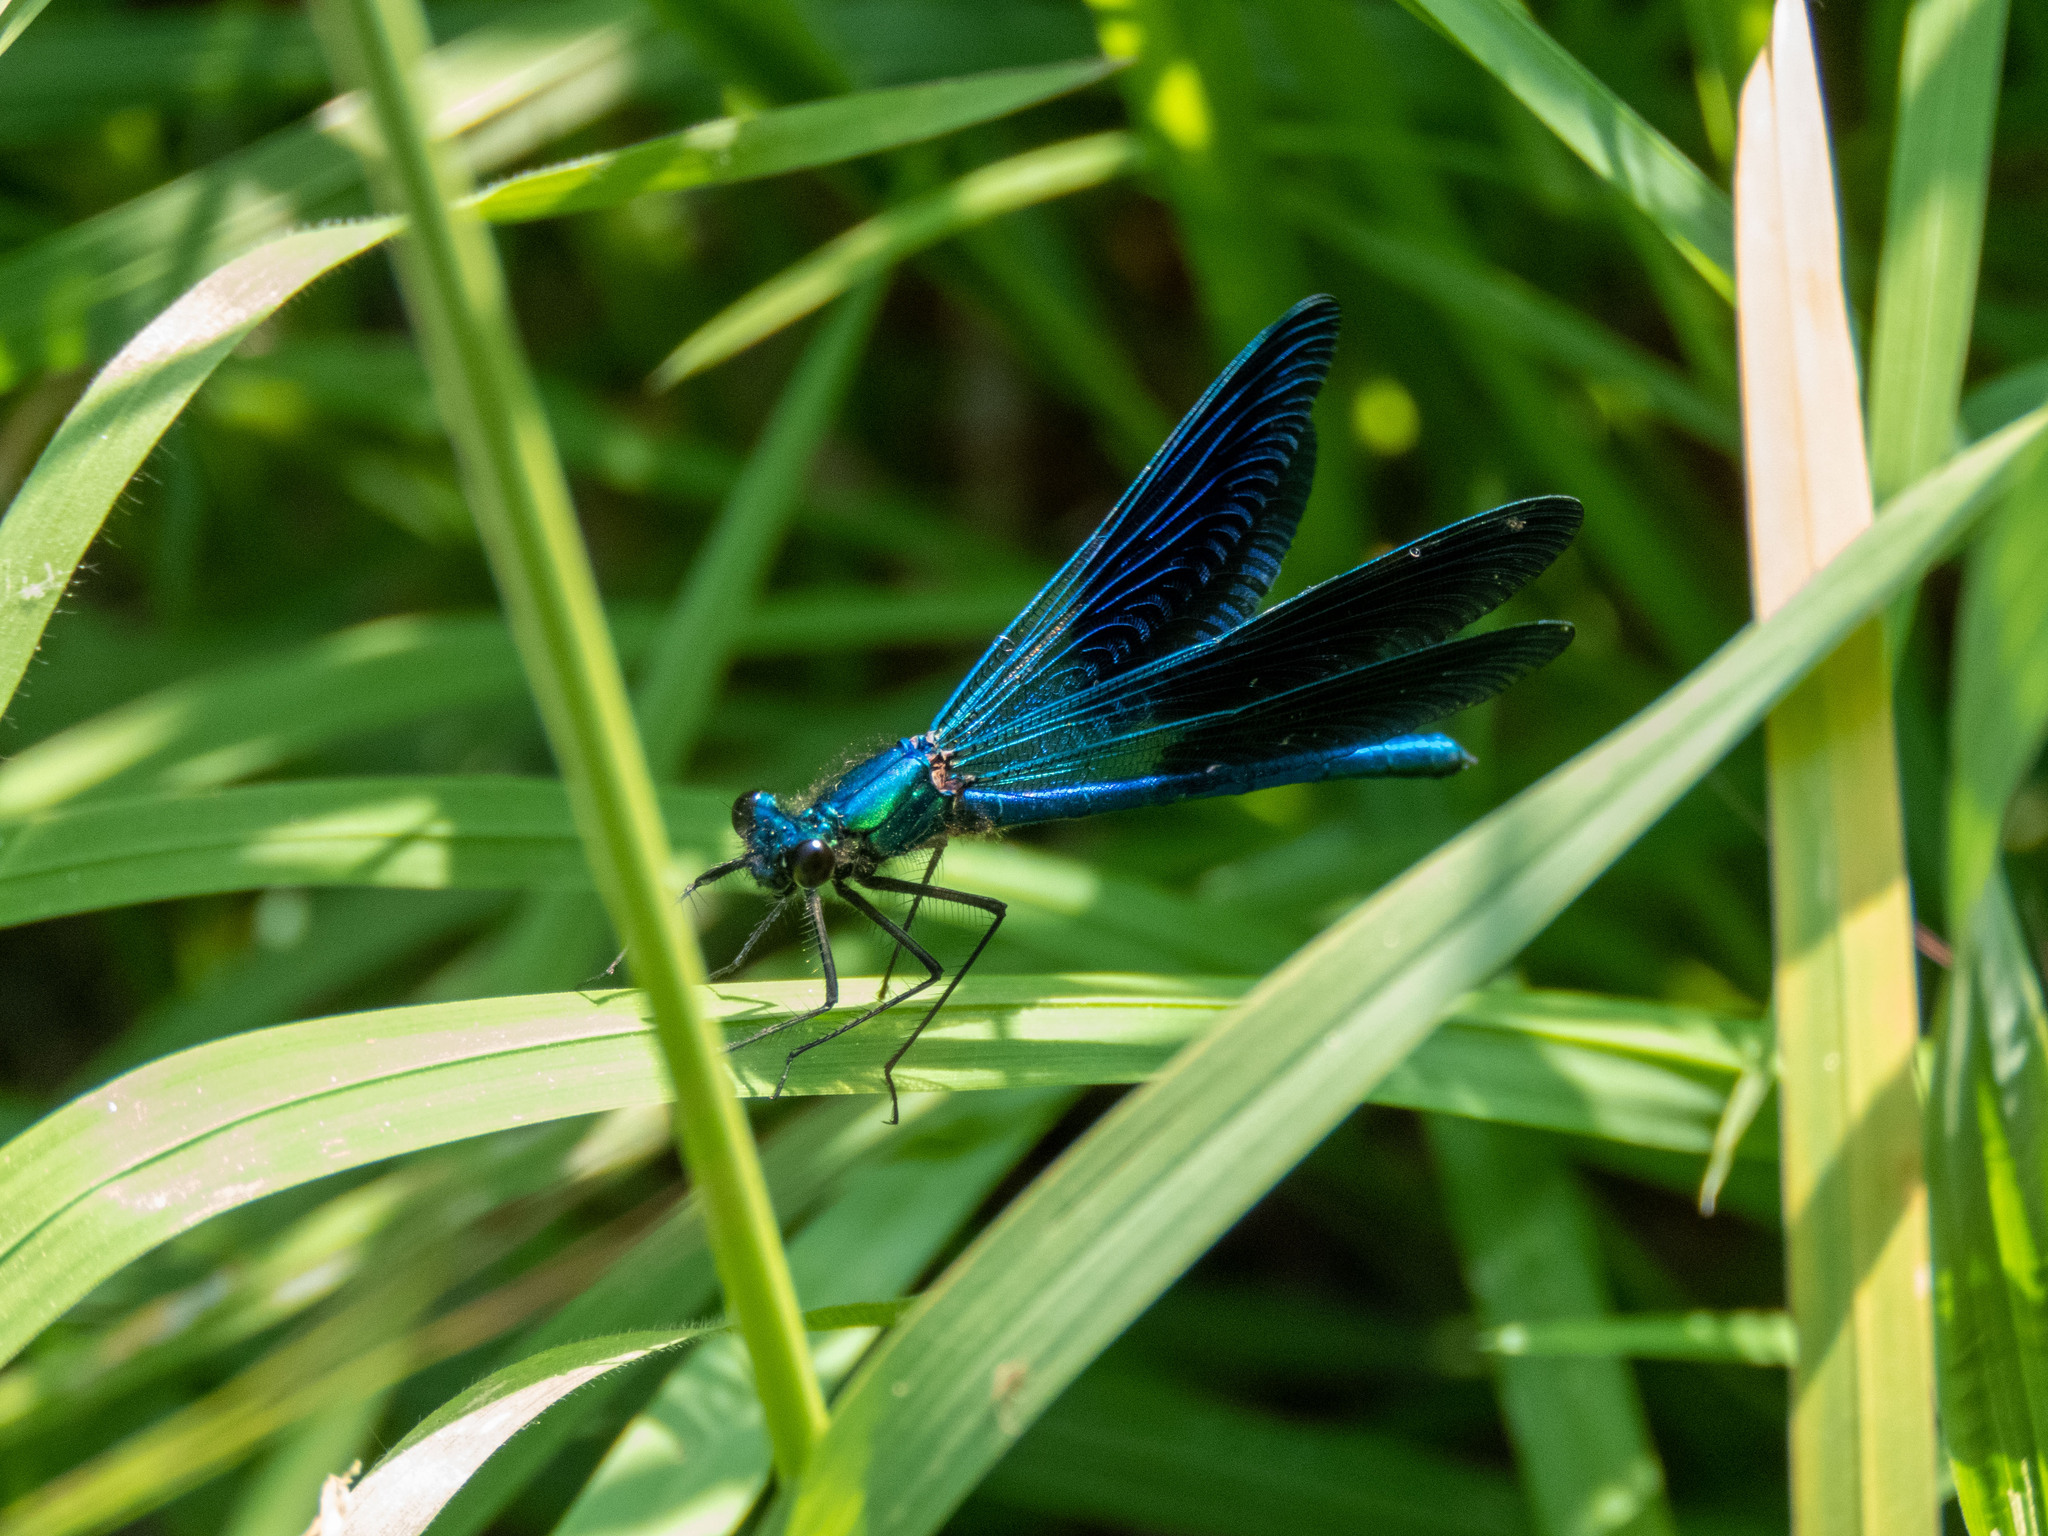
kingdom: Animalia
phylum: Arthropoda
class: Insecta
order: Odonata
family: Calopterygidae
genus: Calopteryx
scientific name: Calopteryx xanthostoma
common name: Western demoiselle
